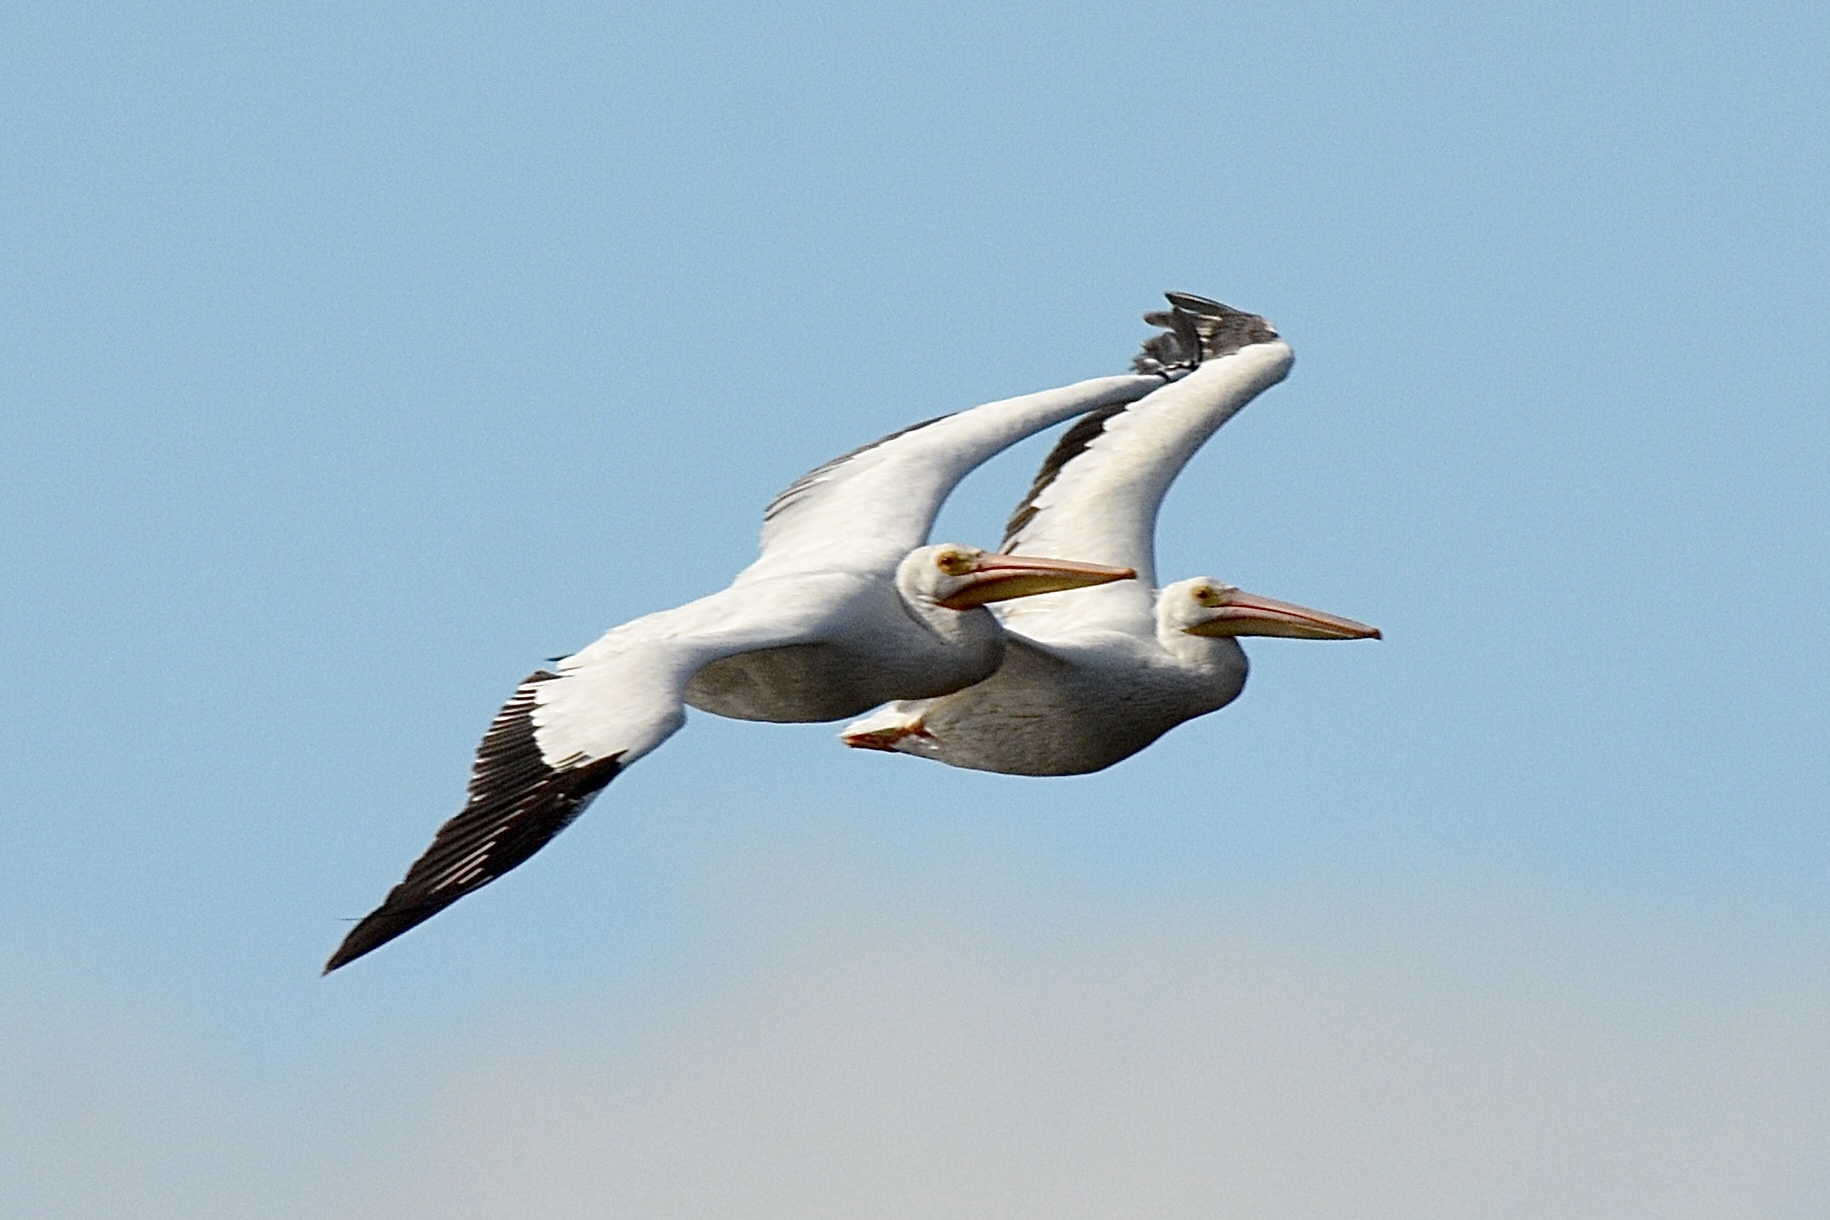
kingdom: Animalia
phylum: Chordata
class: Aves
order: Pelecaniformes
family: Pelecanidae
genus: Pelecanus
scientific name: Pelecanus erythrorhynchos
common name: American white pelican
